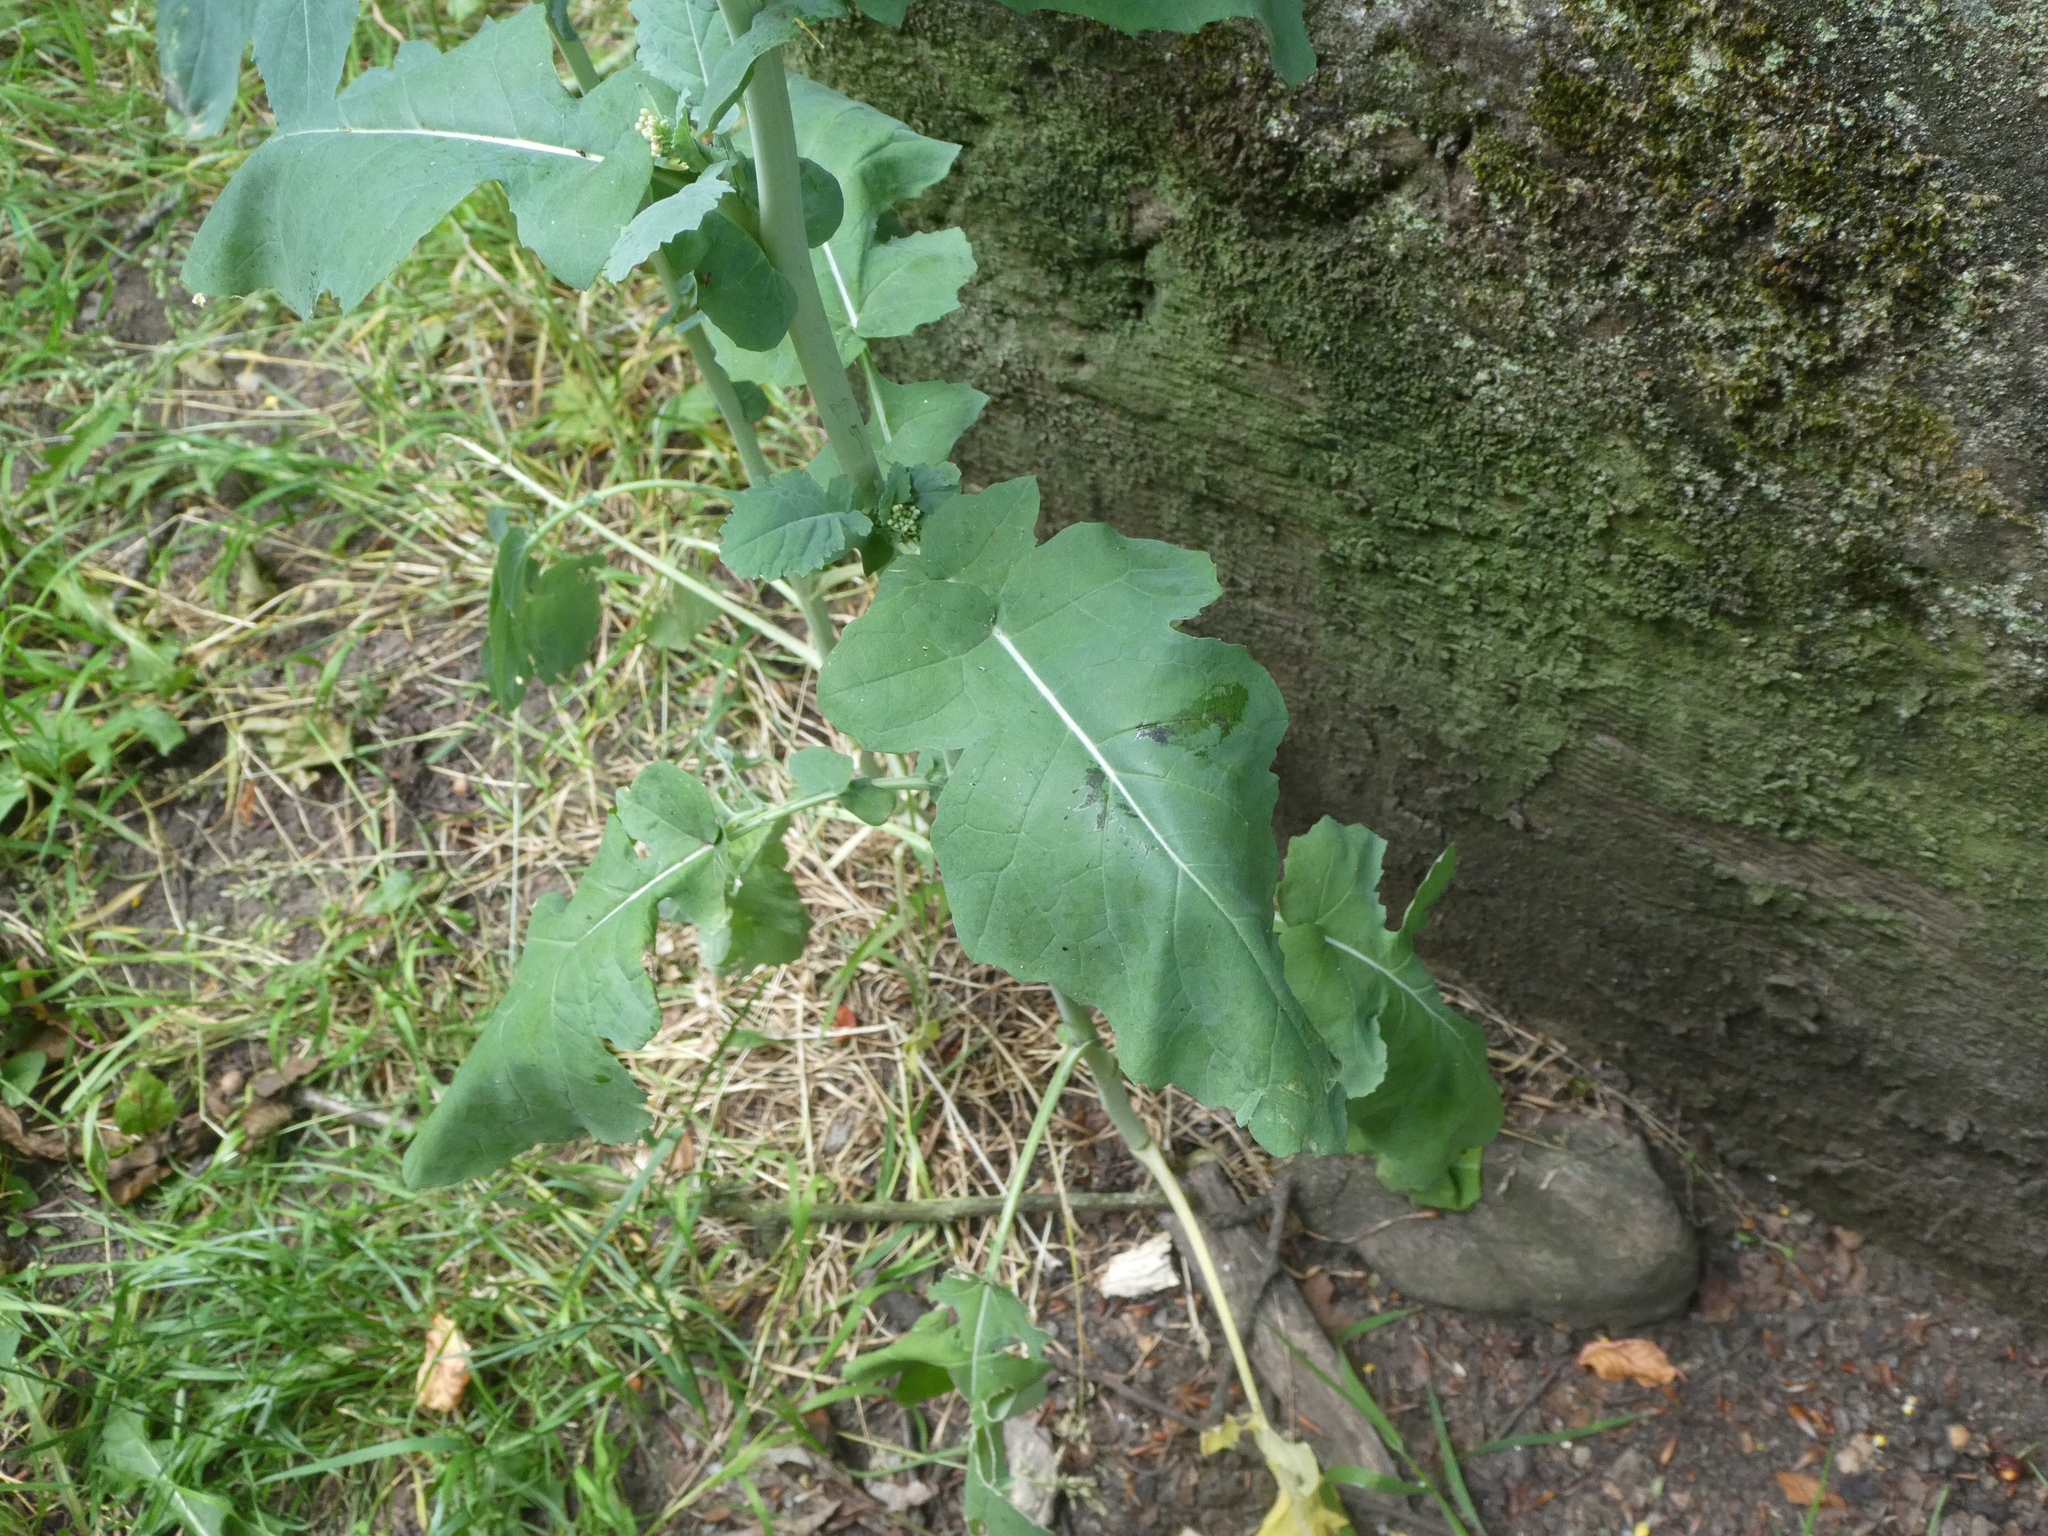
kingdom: Plantae
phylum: Tracheophyta
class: Magnoliopsida
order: Brassicales
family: Brassicaceae
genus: Brassica
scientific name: Brassica napus
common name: Rape
